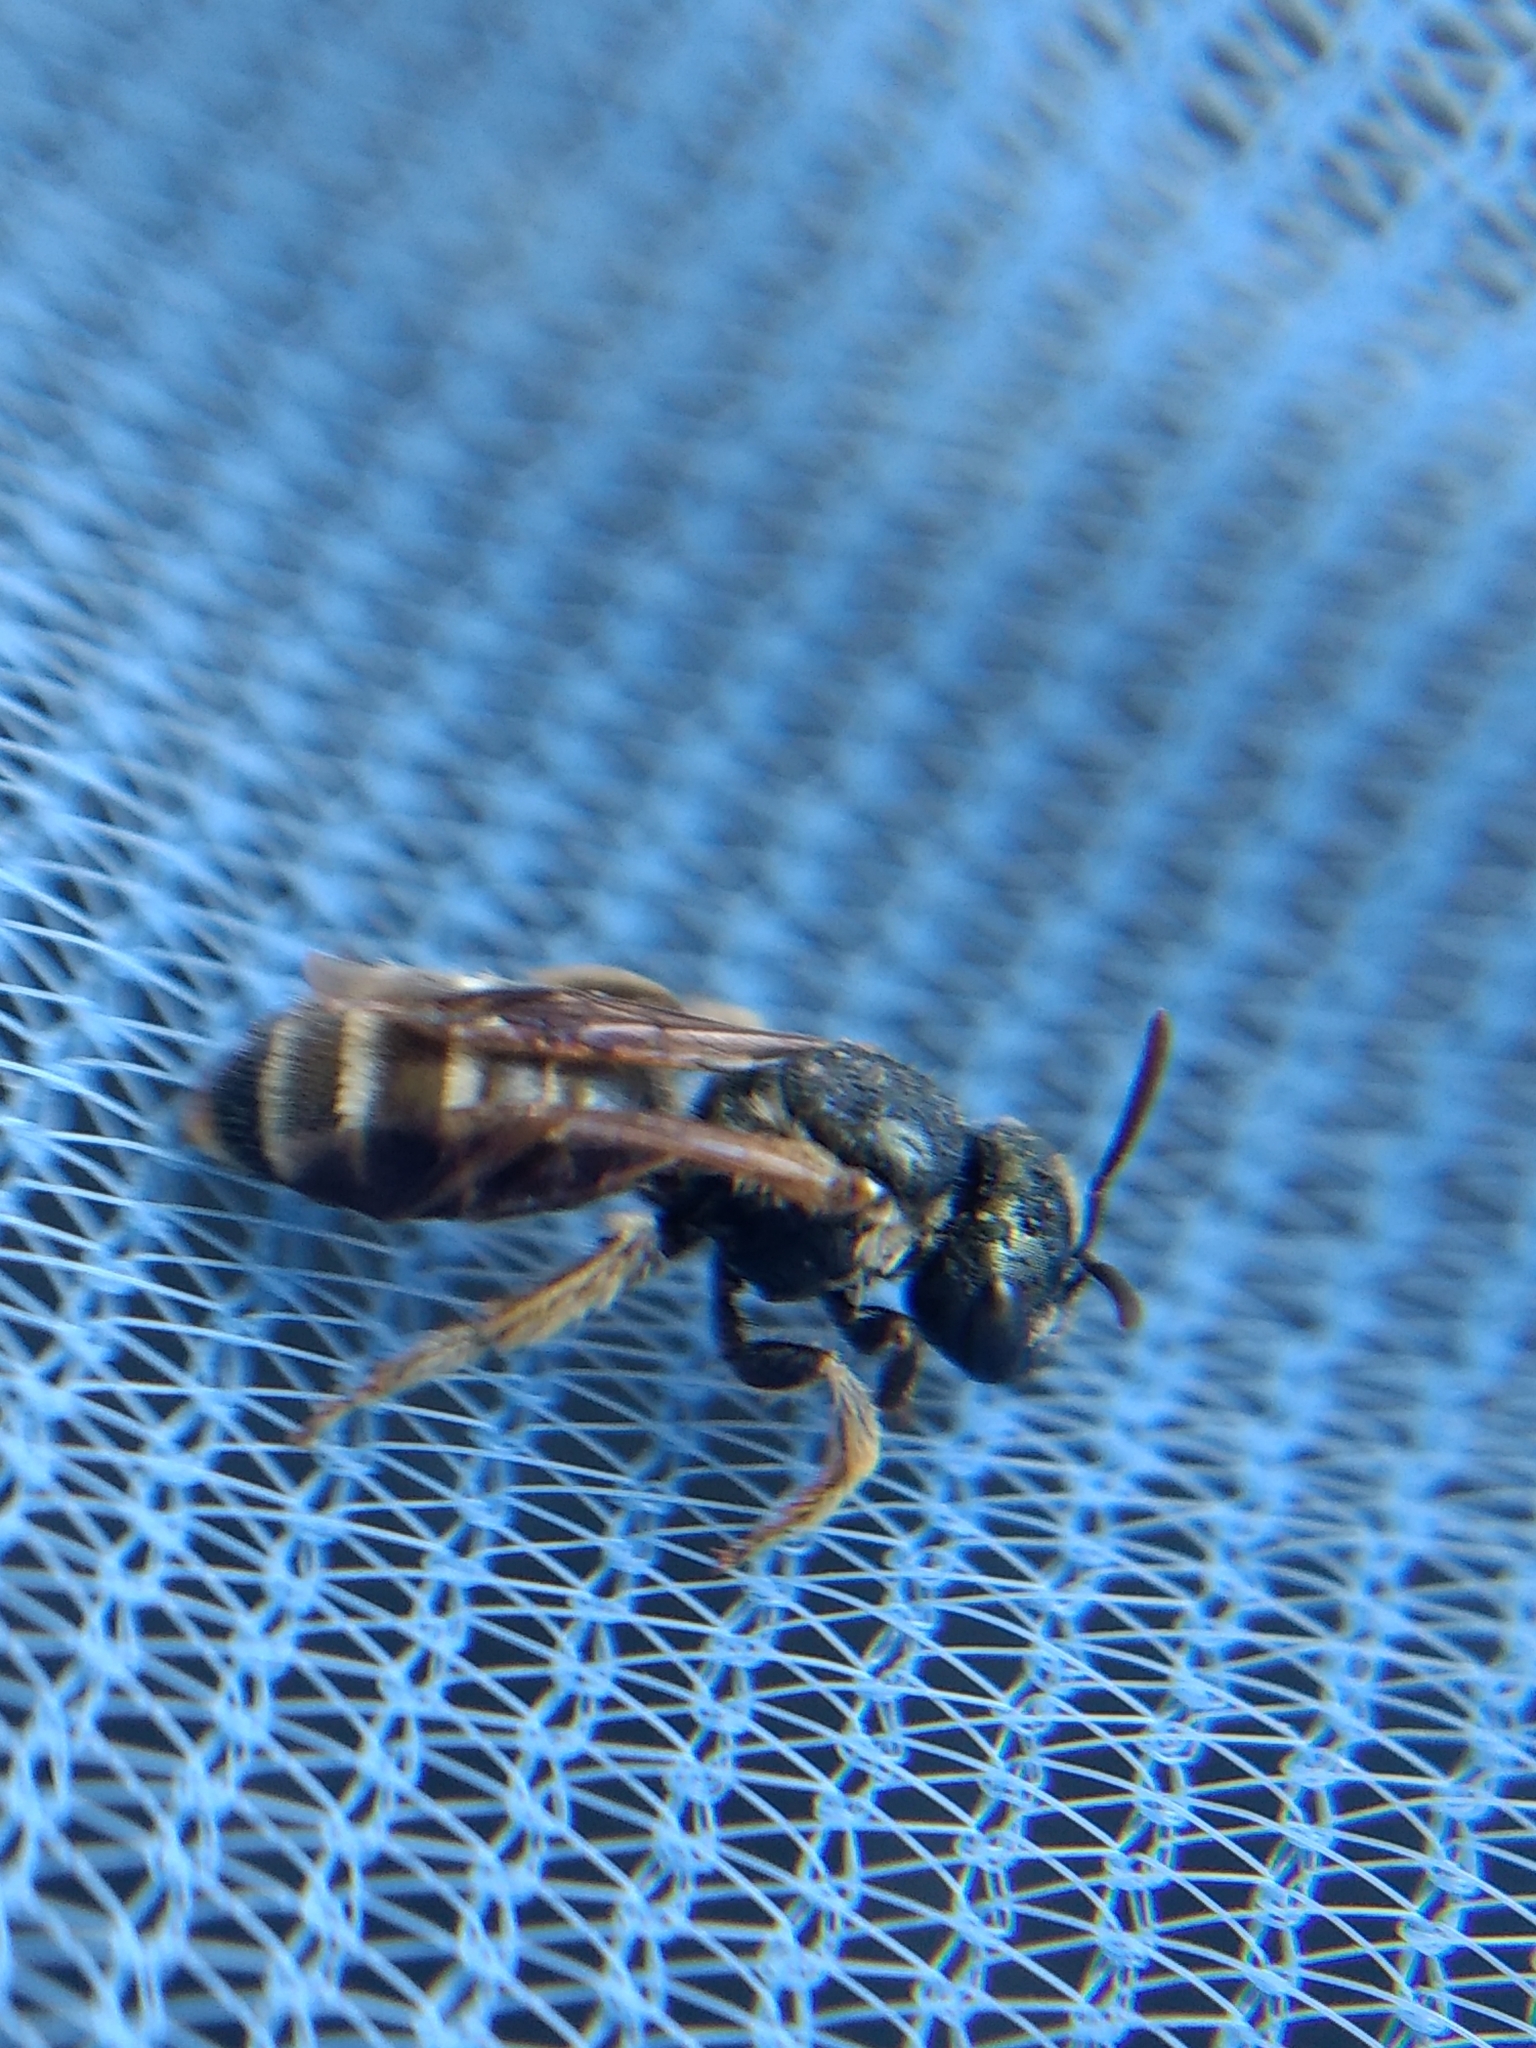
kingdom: Animalia
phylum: Arthropoda
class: Insecta
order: Hymenoptera
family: Halictidae
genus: Halictus
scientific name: Halictus tripartitus
